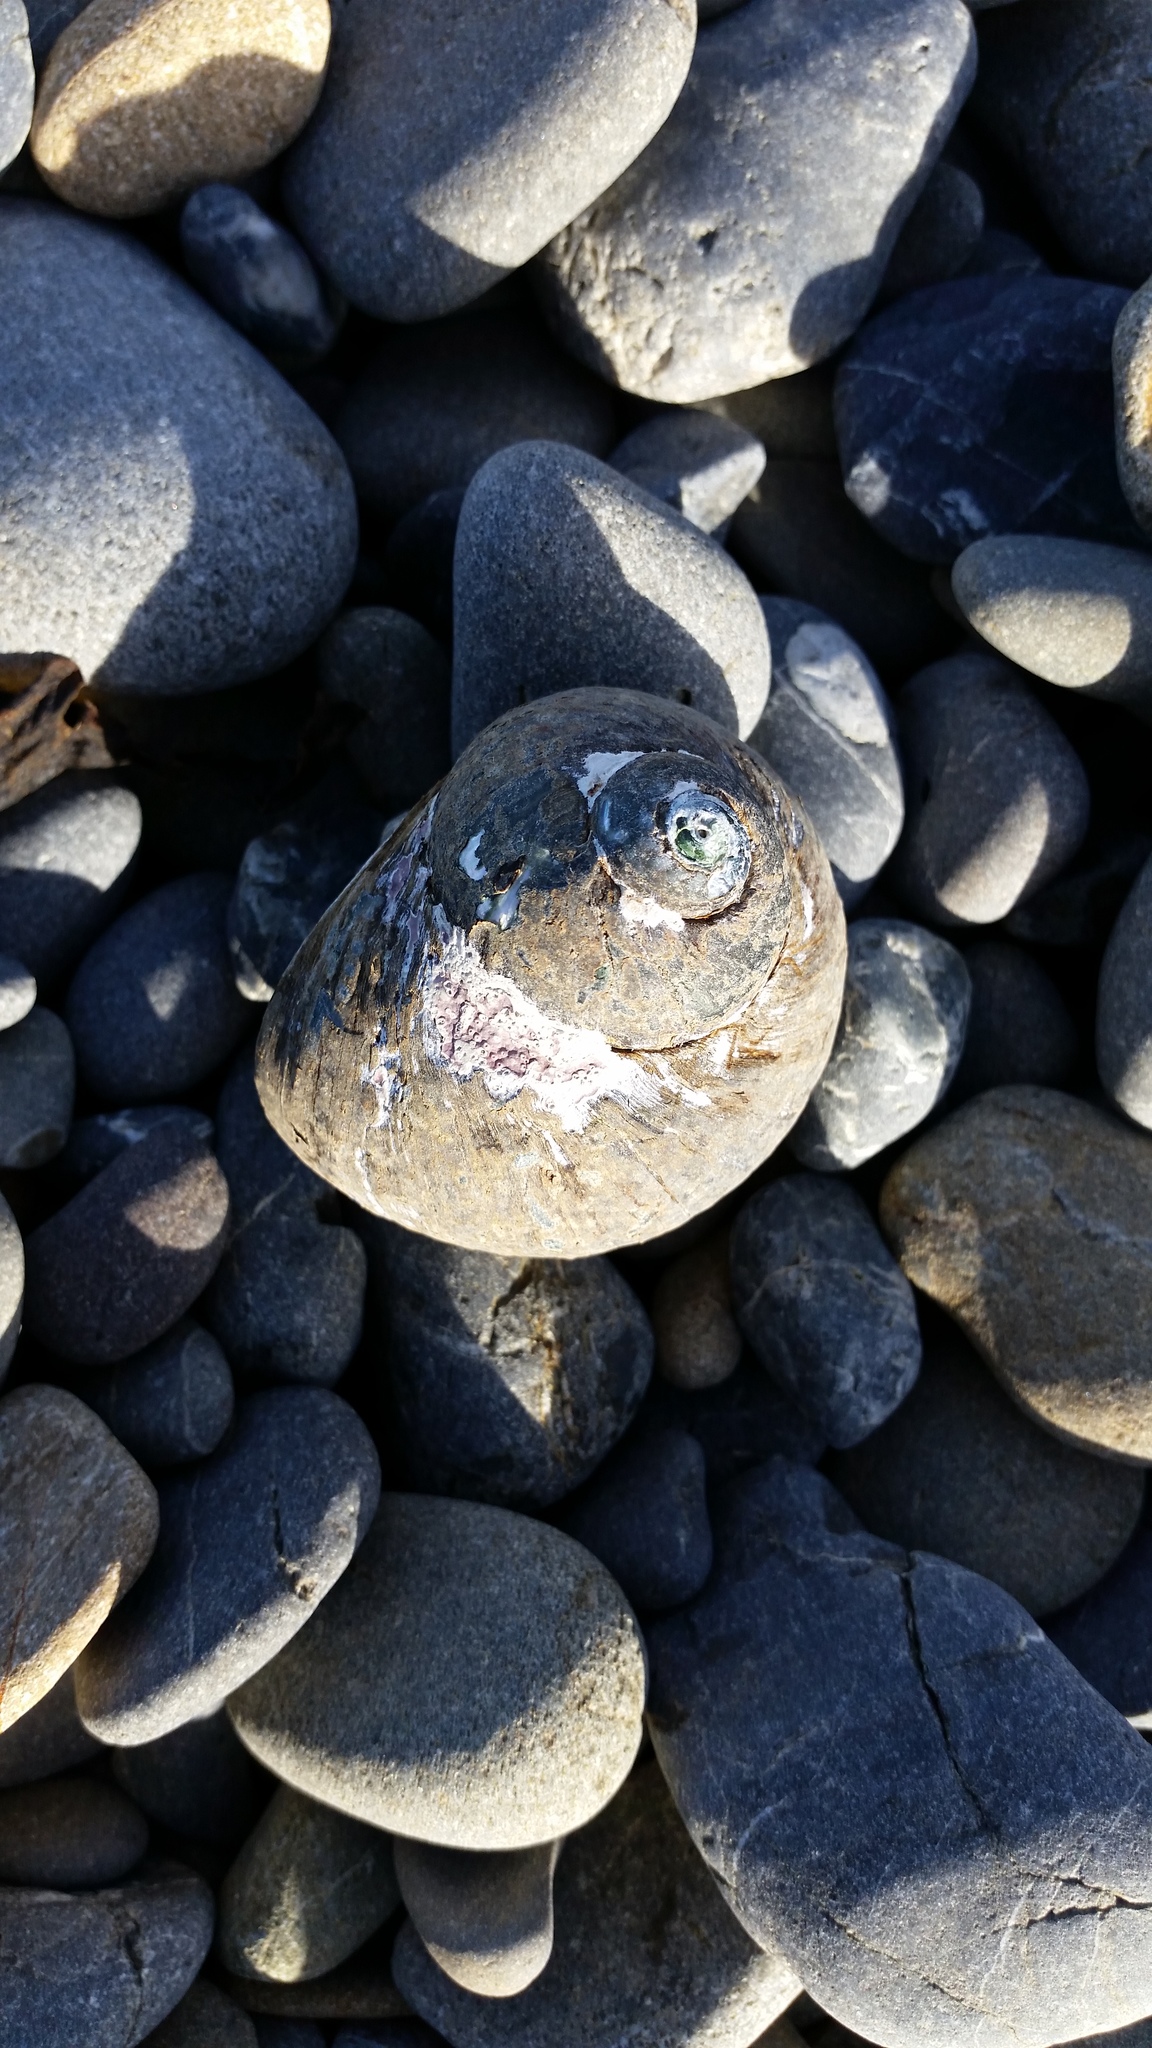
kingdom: Animalia
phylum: Mollusca
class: Gastropoda
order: Trochida
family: Turbinidae
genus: Lunella
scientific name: Lunella smaragda
